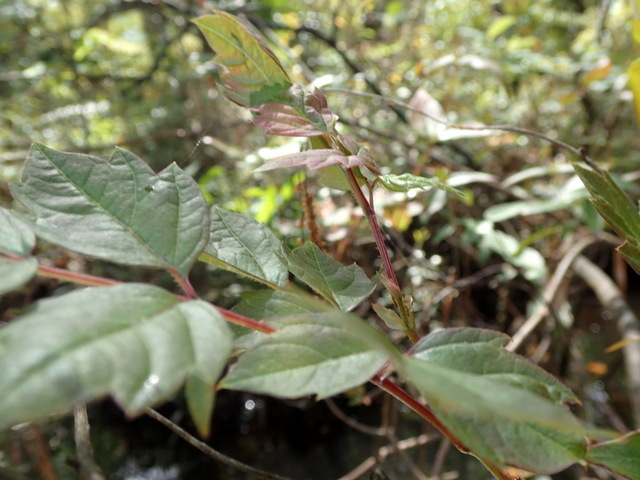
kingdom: Plantae
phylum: Tracheophyta
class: Magnoliopsida
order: Vitales
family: Vitaceae
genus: Nekemias
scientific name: Nekemias arborea
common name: Peppervine
